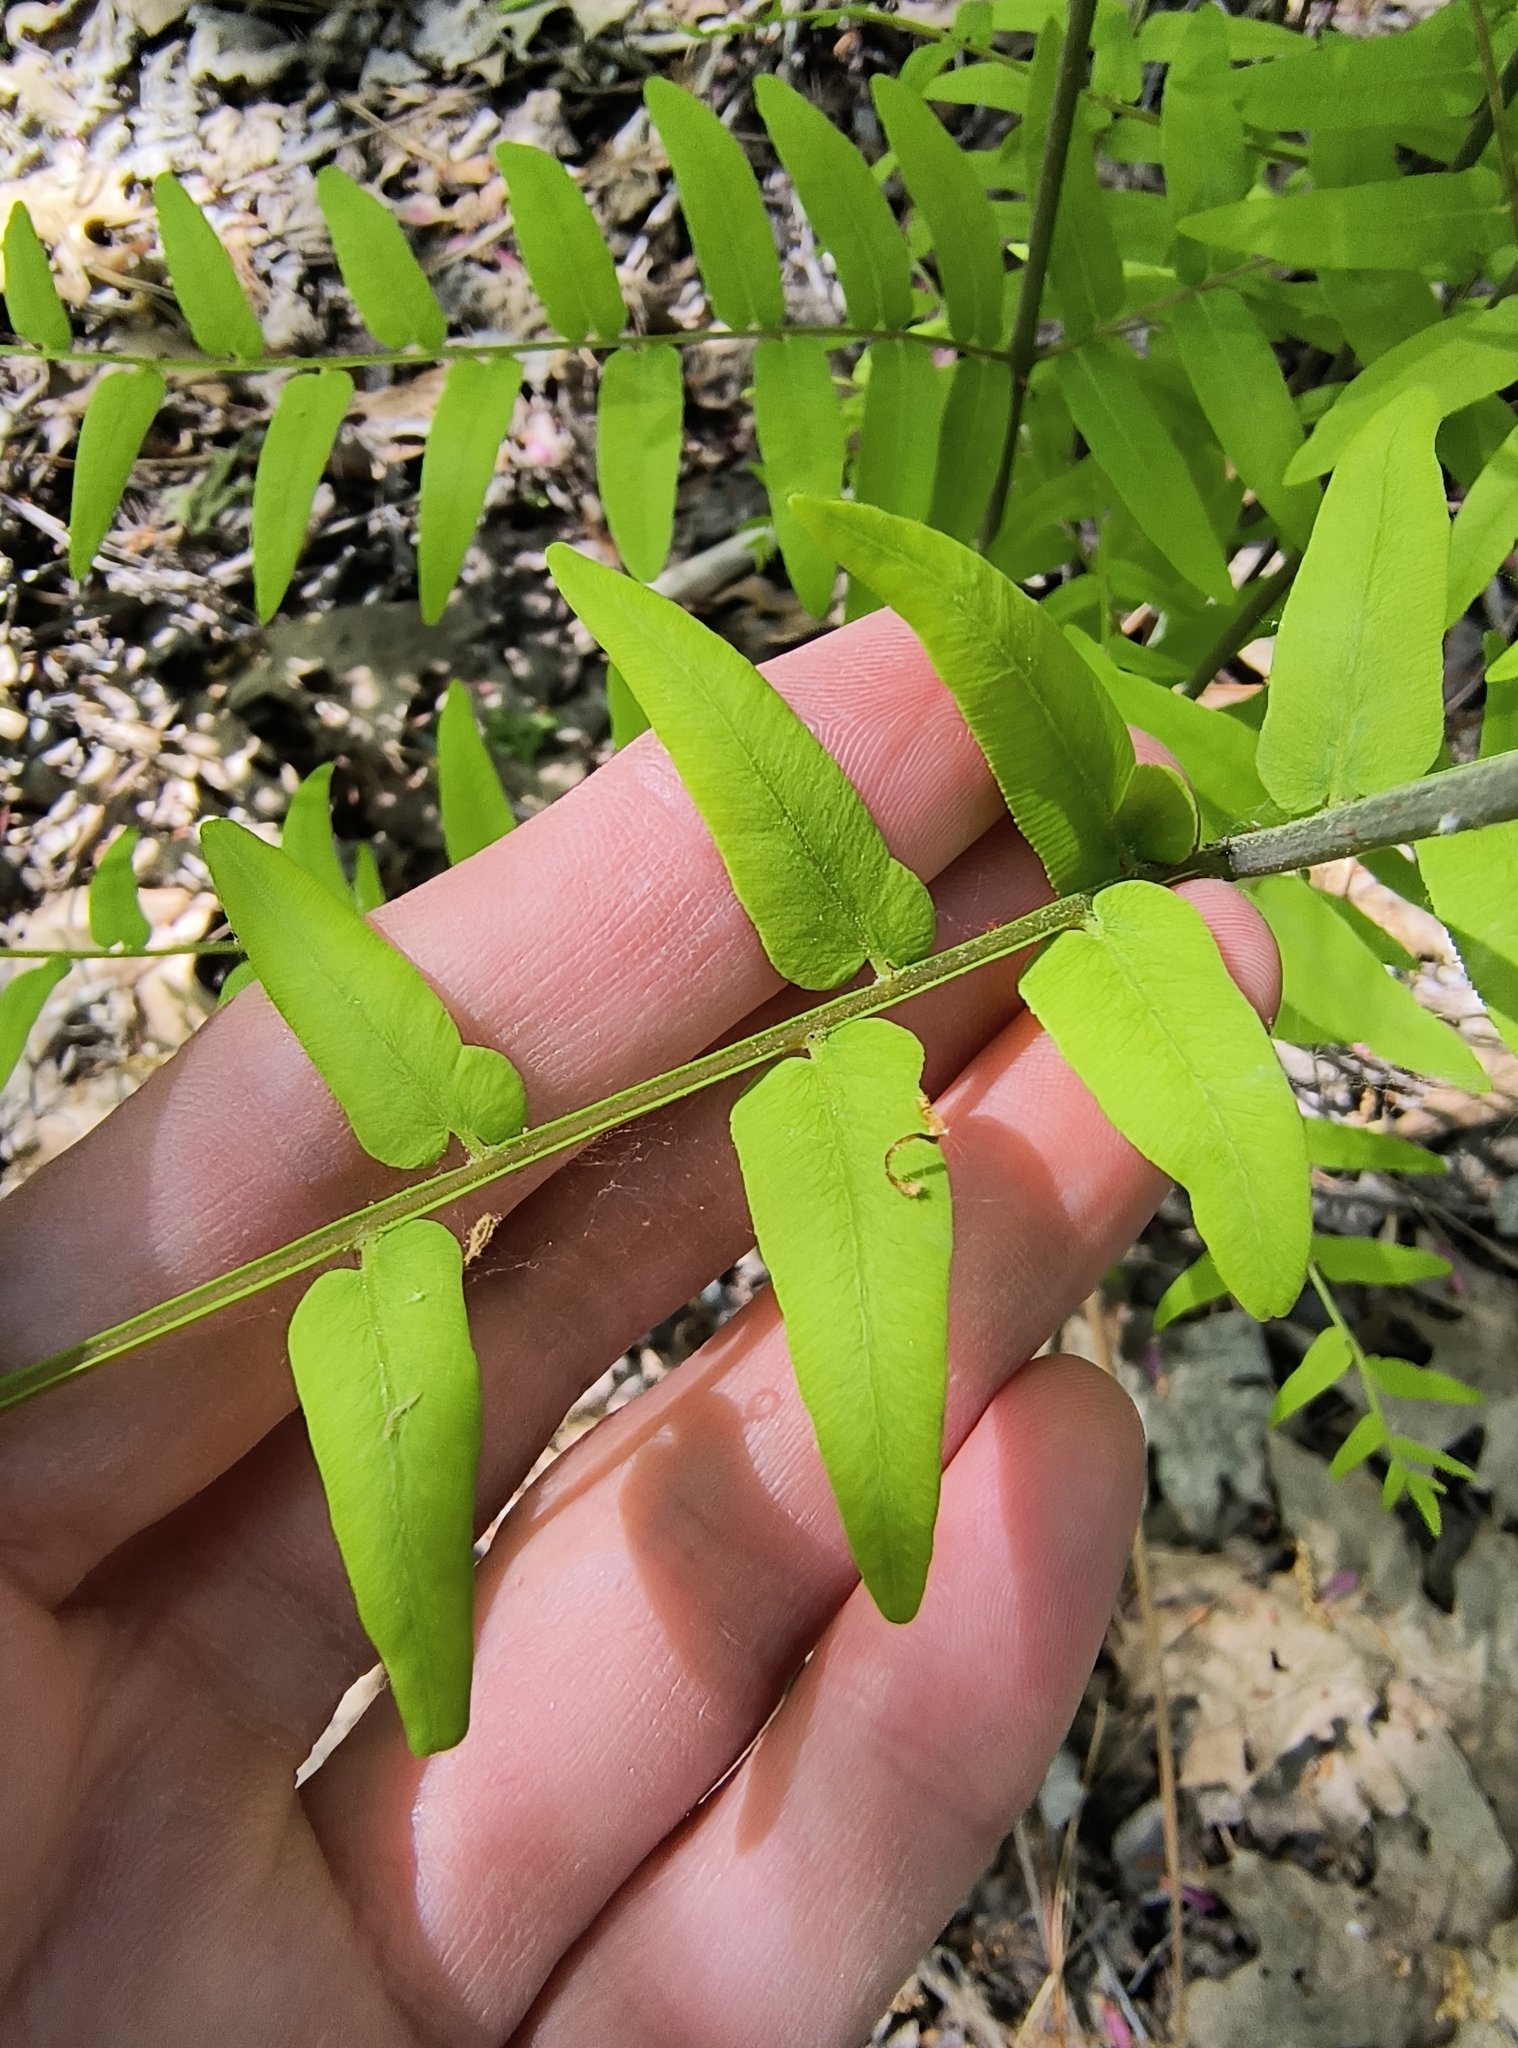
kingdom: Plantae
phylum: Tracheophyta
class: Polypodiopsida
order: Osmundales
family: Osmundaceae
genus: Osmunda
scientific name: Osmunda spectabilis
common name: American royal fern
